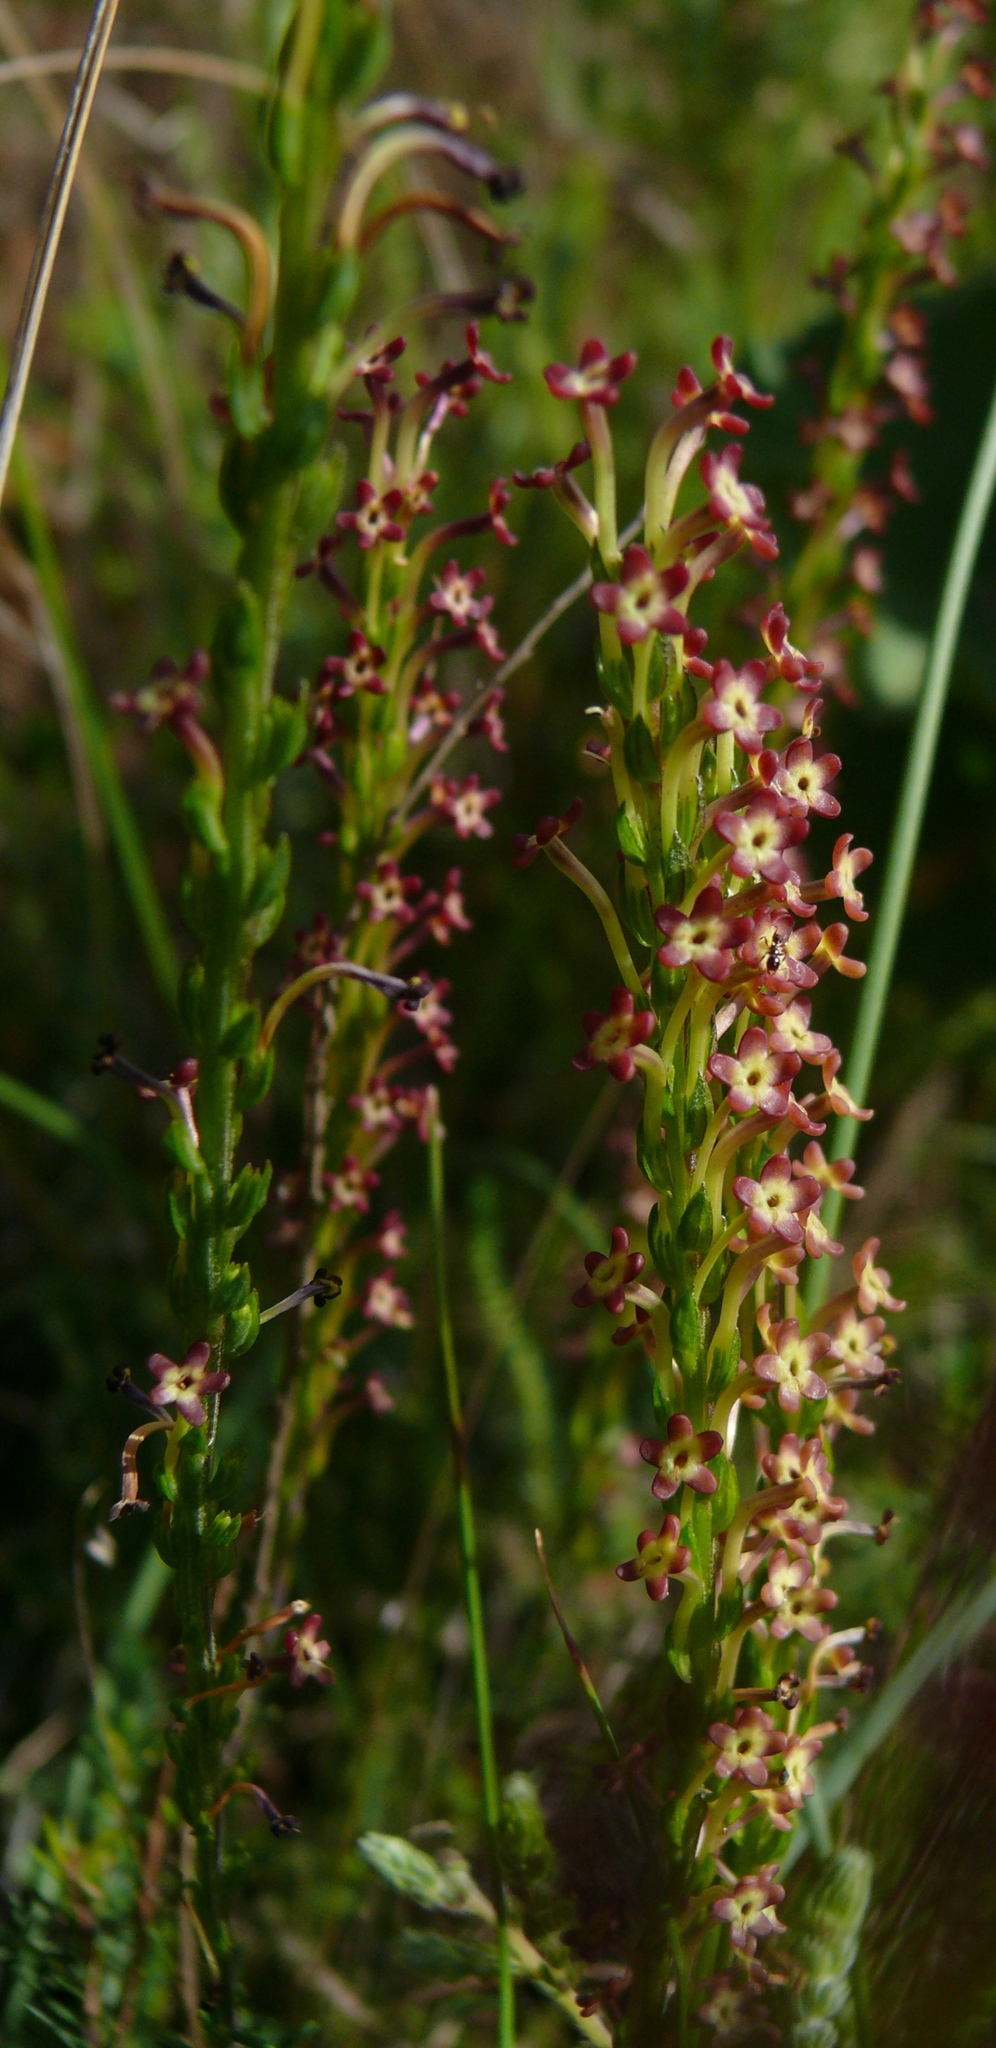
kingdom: Plantae
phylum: Tracheophyta
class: Magnoliopsida
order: Lamiales
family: Scrophulariaceae
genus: Microdon
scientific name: Microdon dubius
